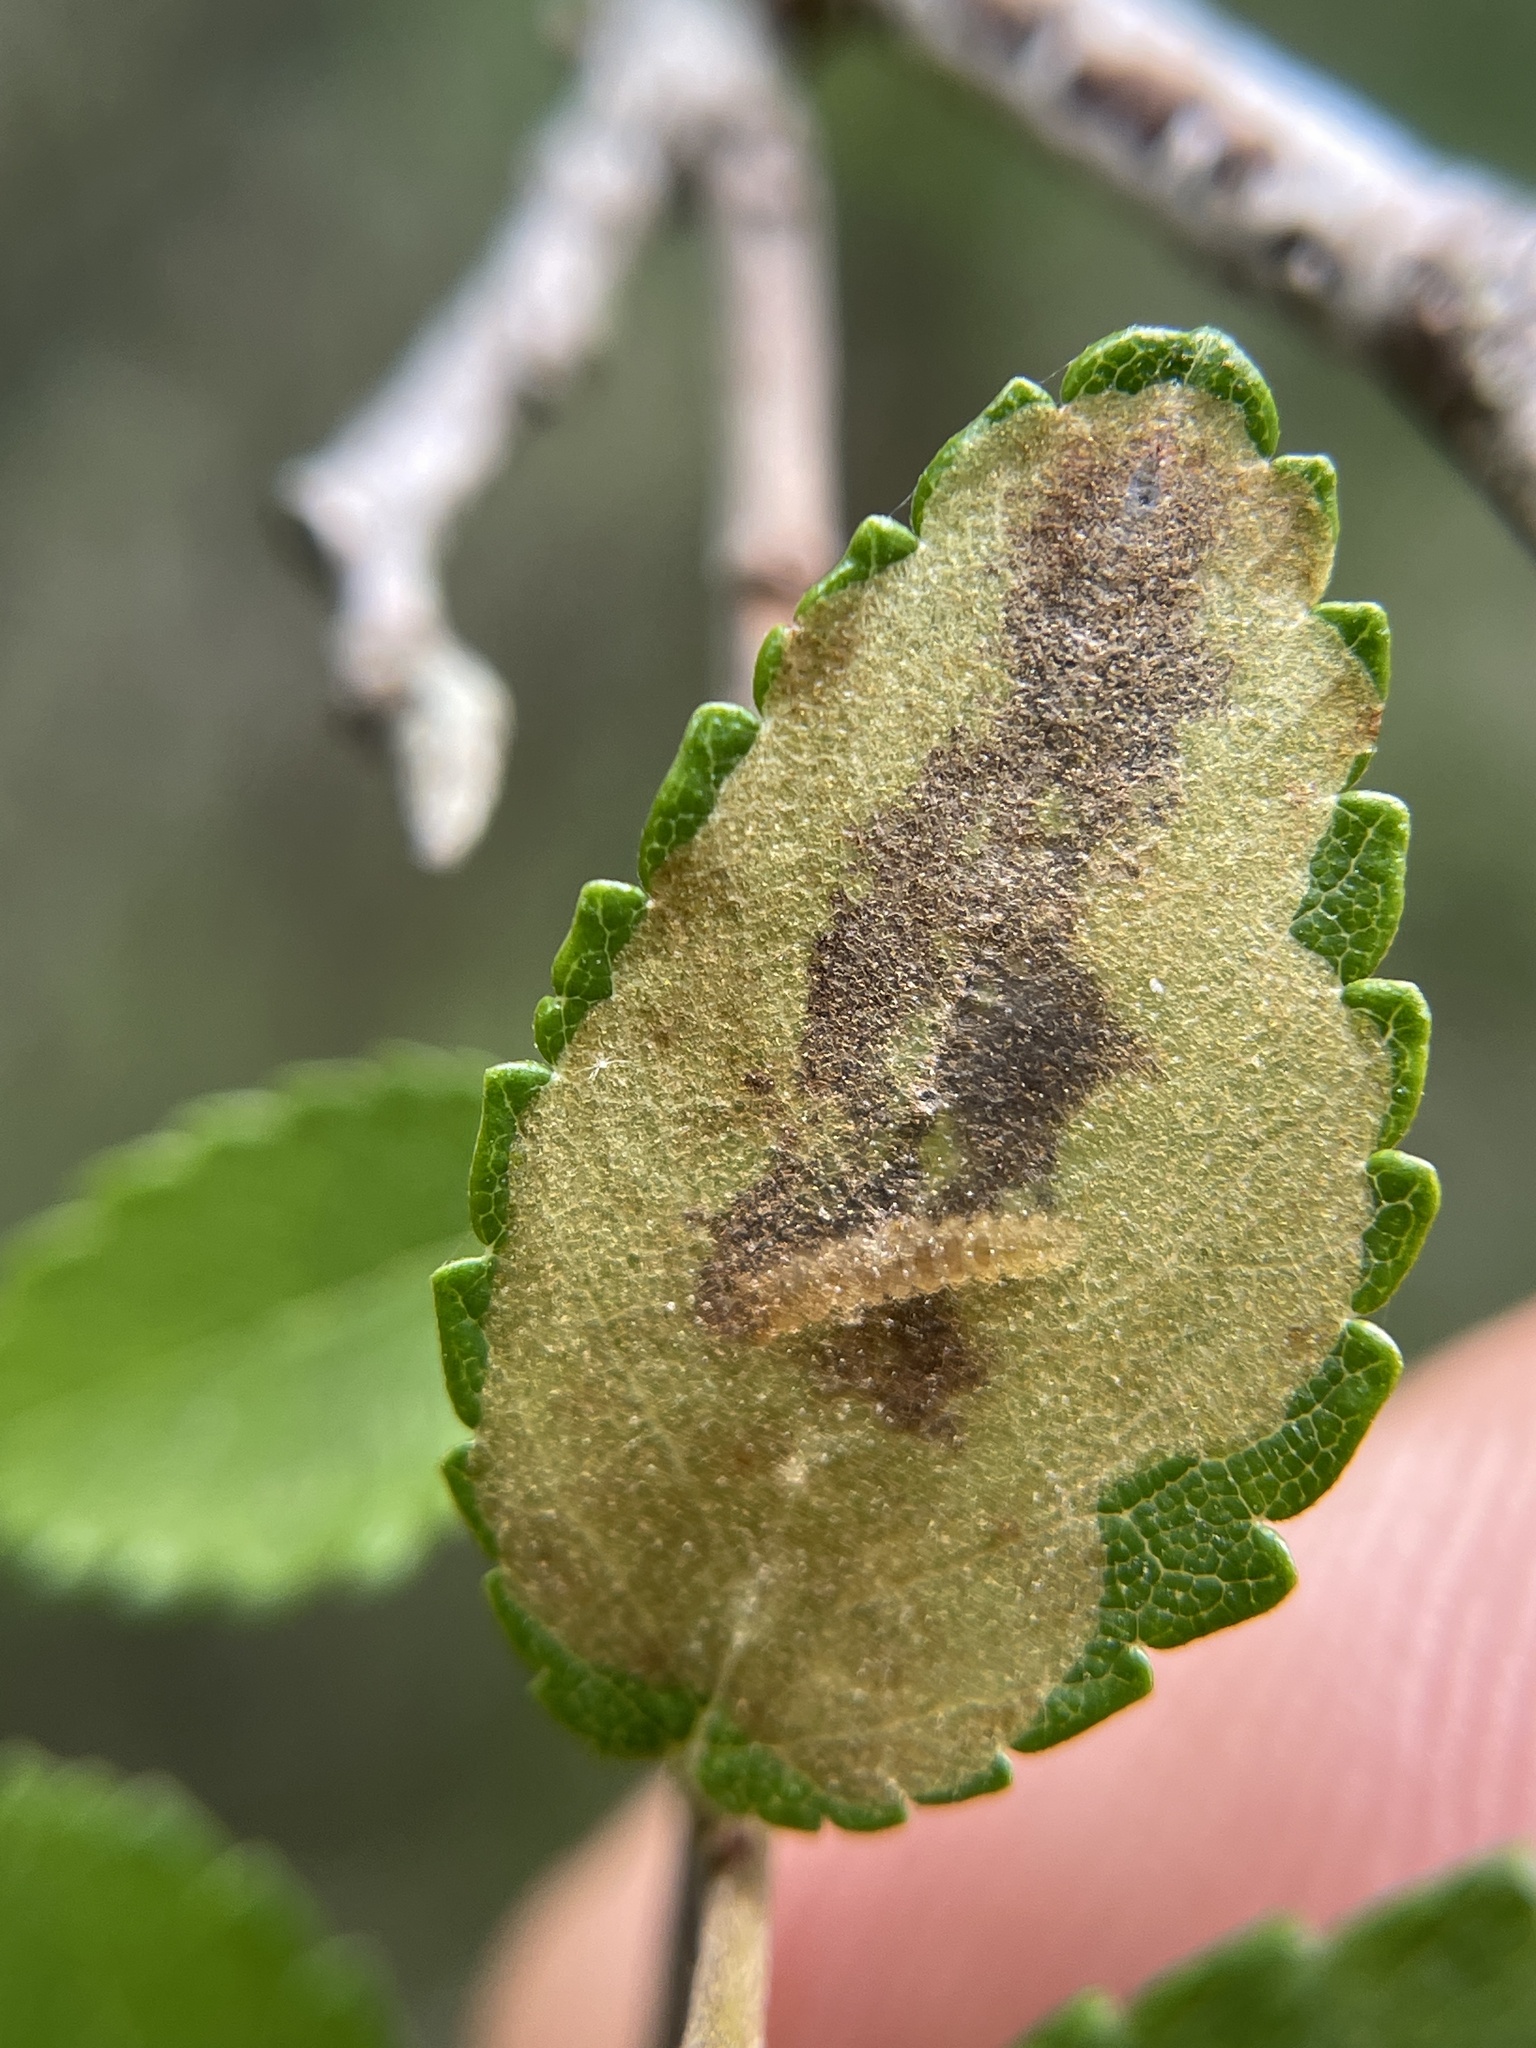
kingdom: Animalia
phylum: Arthropoda
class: Insecta
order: Lepidoptera
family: Gracillariidae
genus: Cameraria
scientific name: Cameraria ulmella
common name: Elm leafminer
